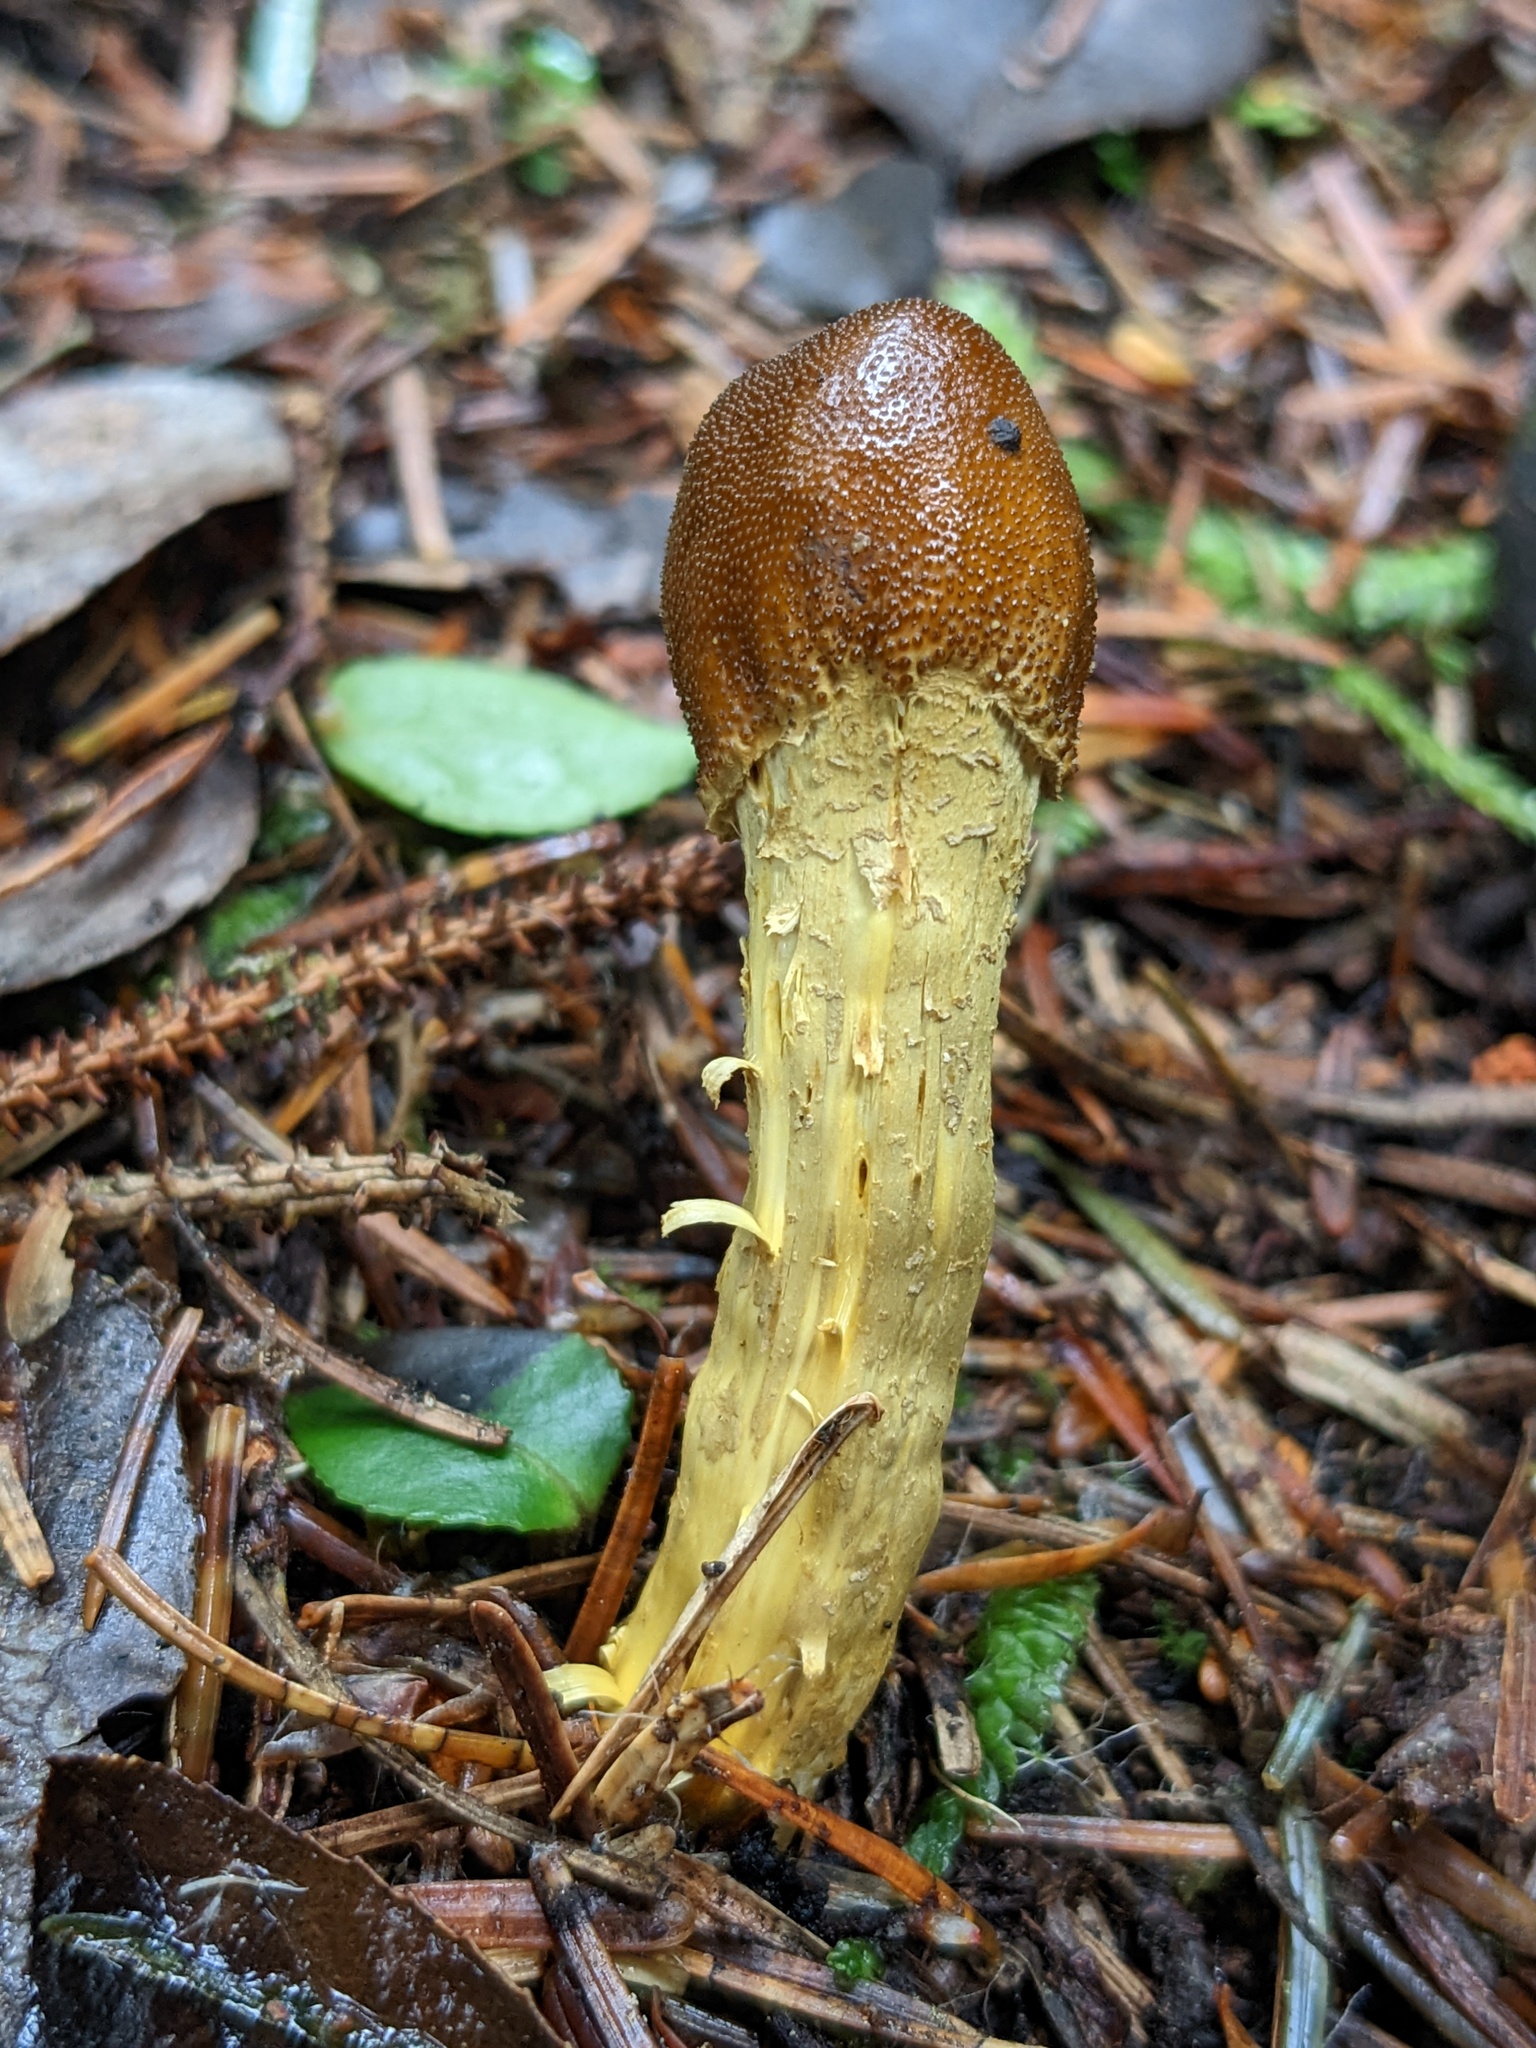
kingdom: Fungi
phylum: Ascomycota
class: Sordariomycetes
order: Hypocreales
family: Ophiocordycipitaceae
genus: Tolypocladium
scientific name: Tolypocladium capitatum
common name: Capitate truffleclub
